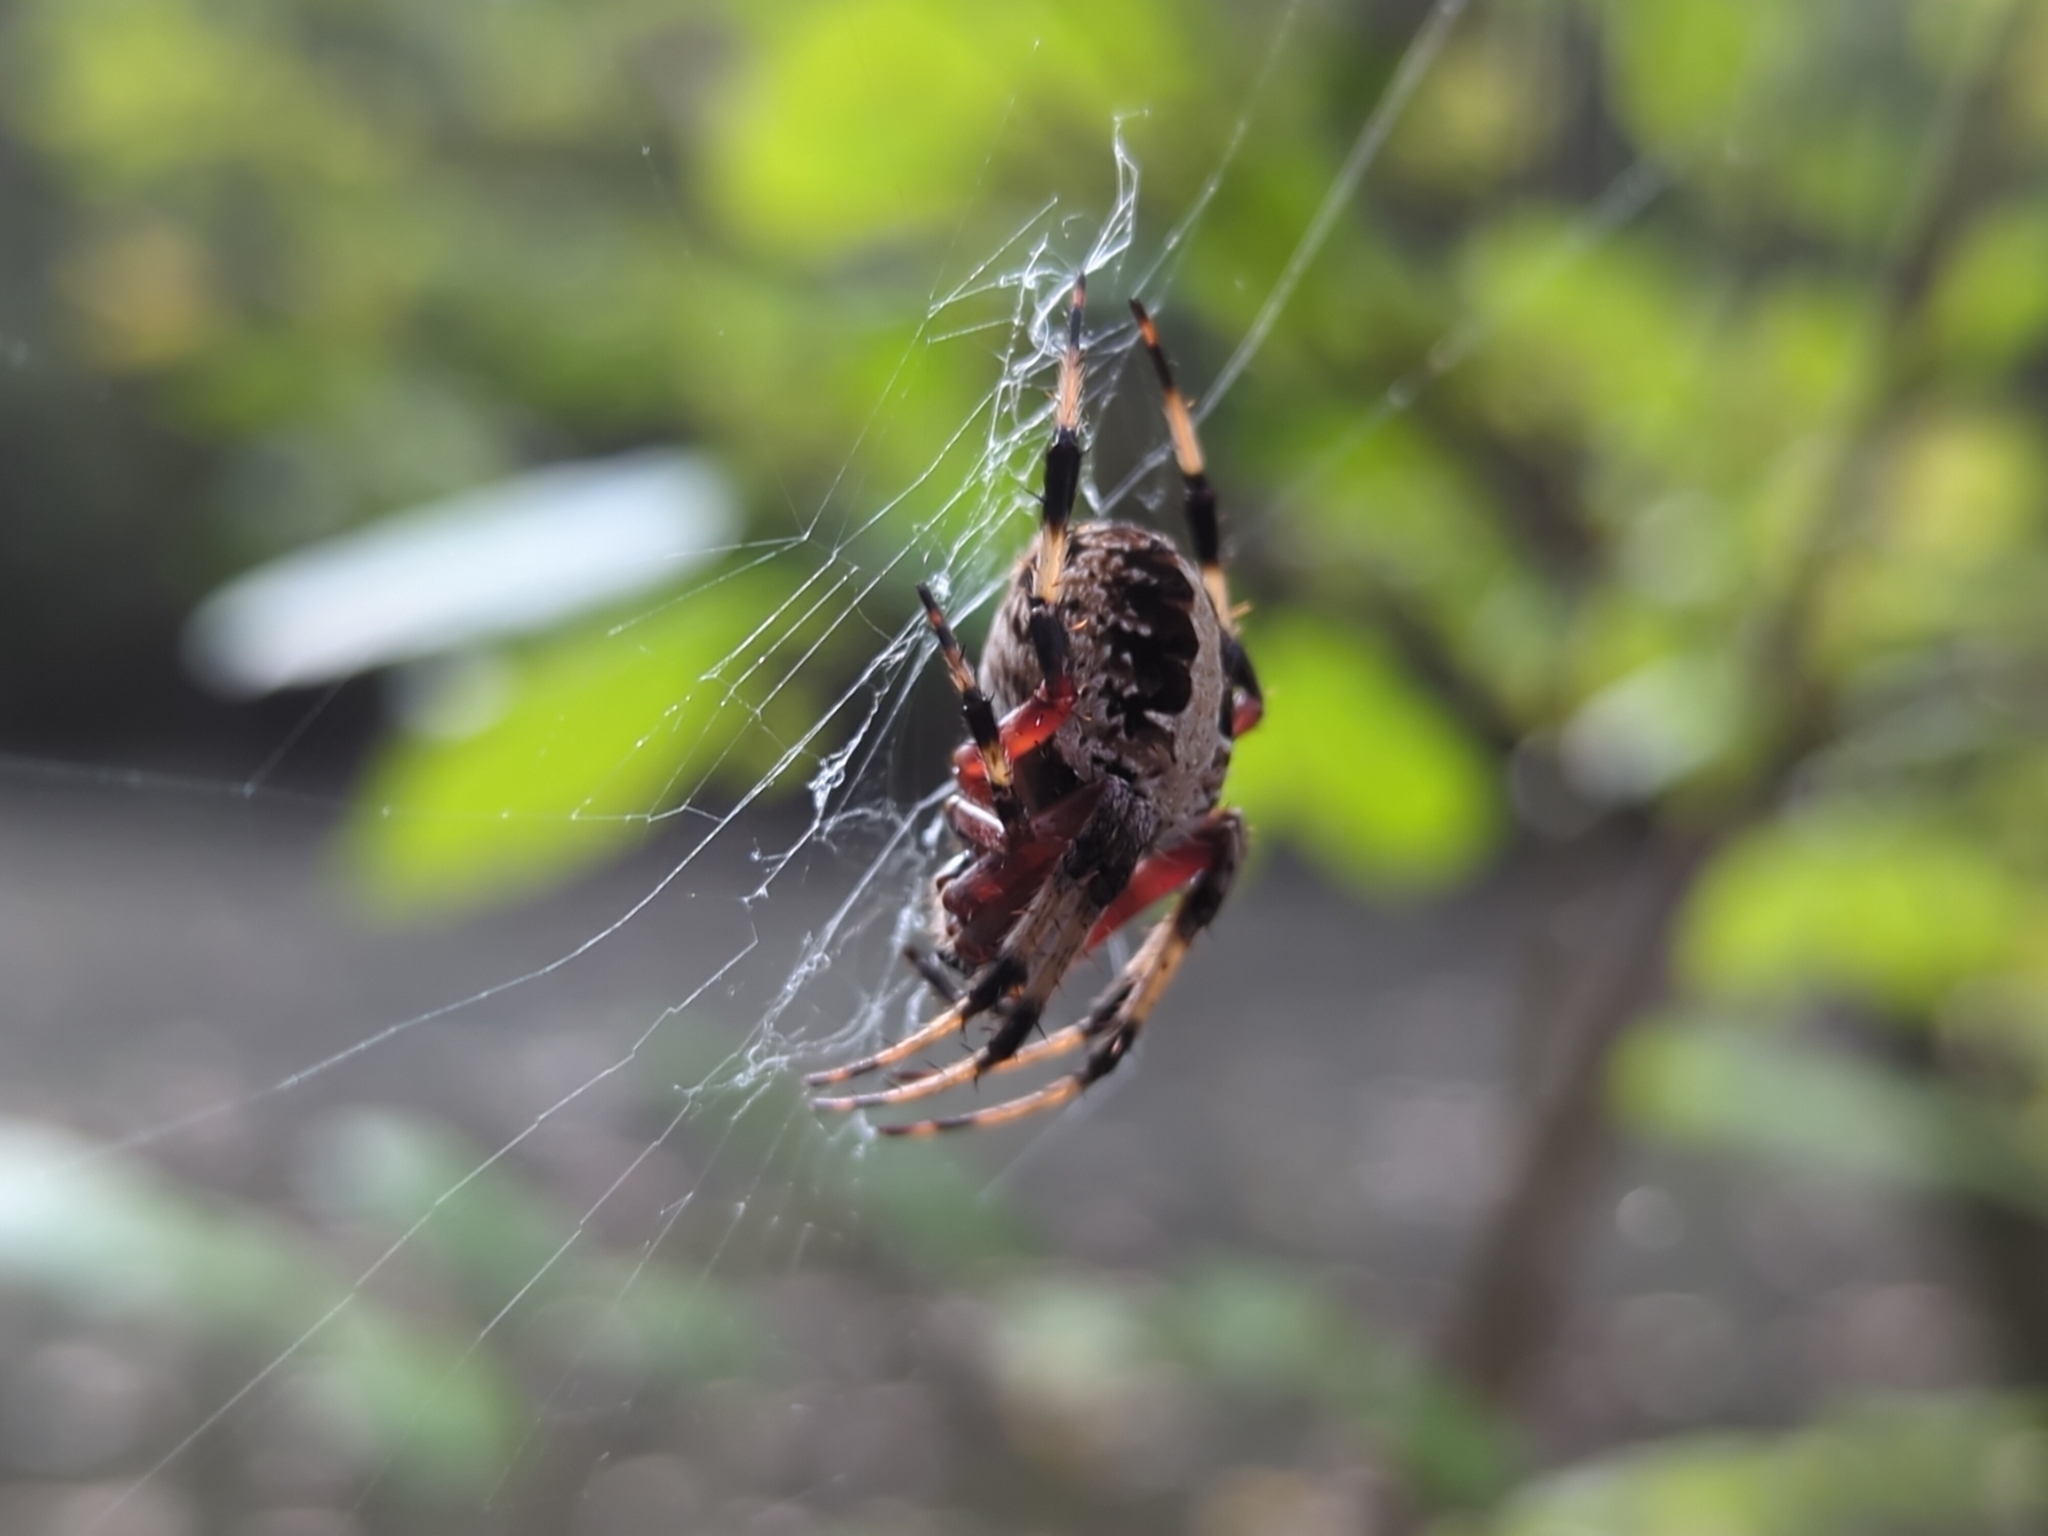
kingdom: Animalia
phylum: Arthropoda
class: Arachnida
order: Araneae
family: Araneidae
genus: Neoscona
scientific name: Neoscona domiciliorum
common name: Red-femured spotted orbweaver
